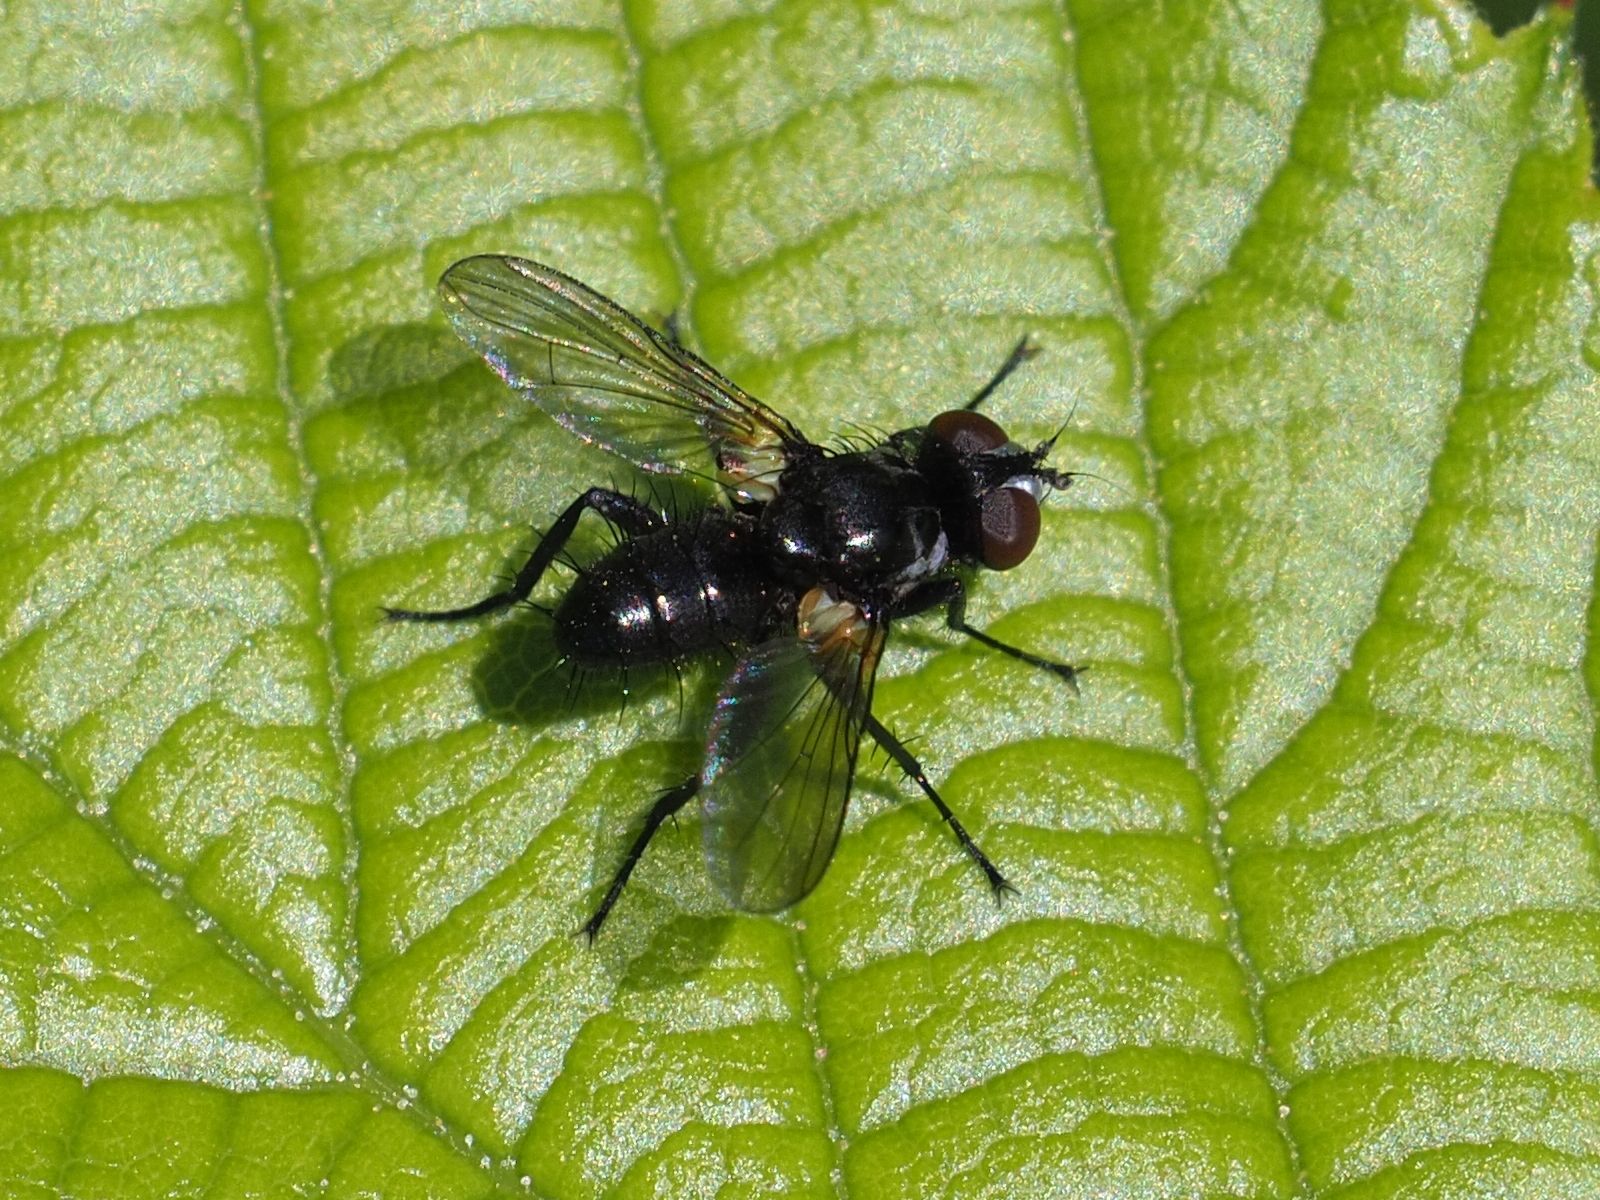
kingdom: Animalia
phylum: Arthropoda
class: Insecta
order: Diptera
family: Tachinidae
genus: Phania
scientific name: Phania funesta
